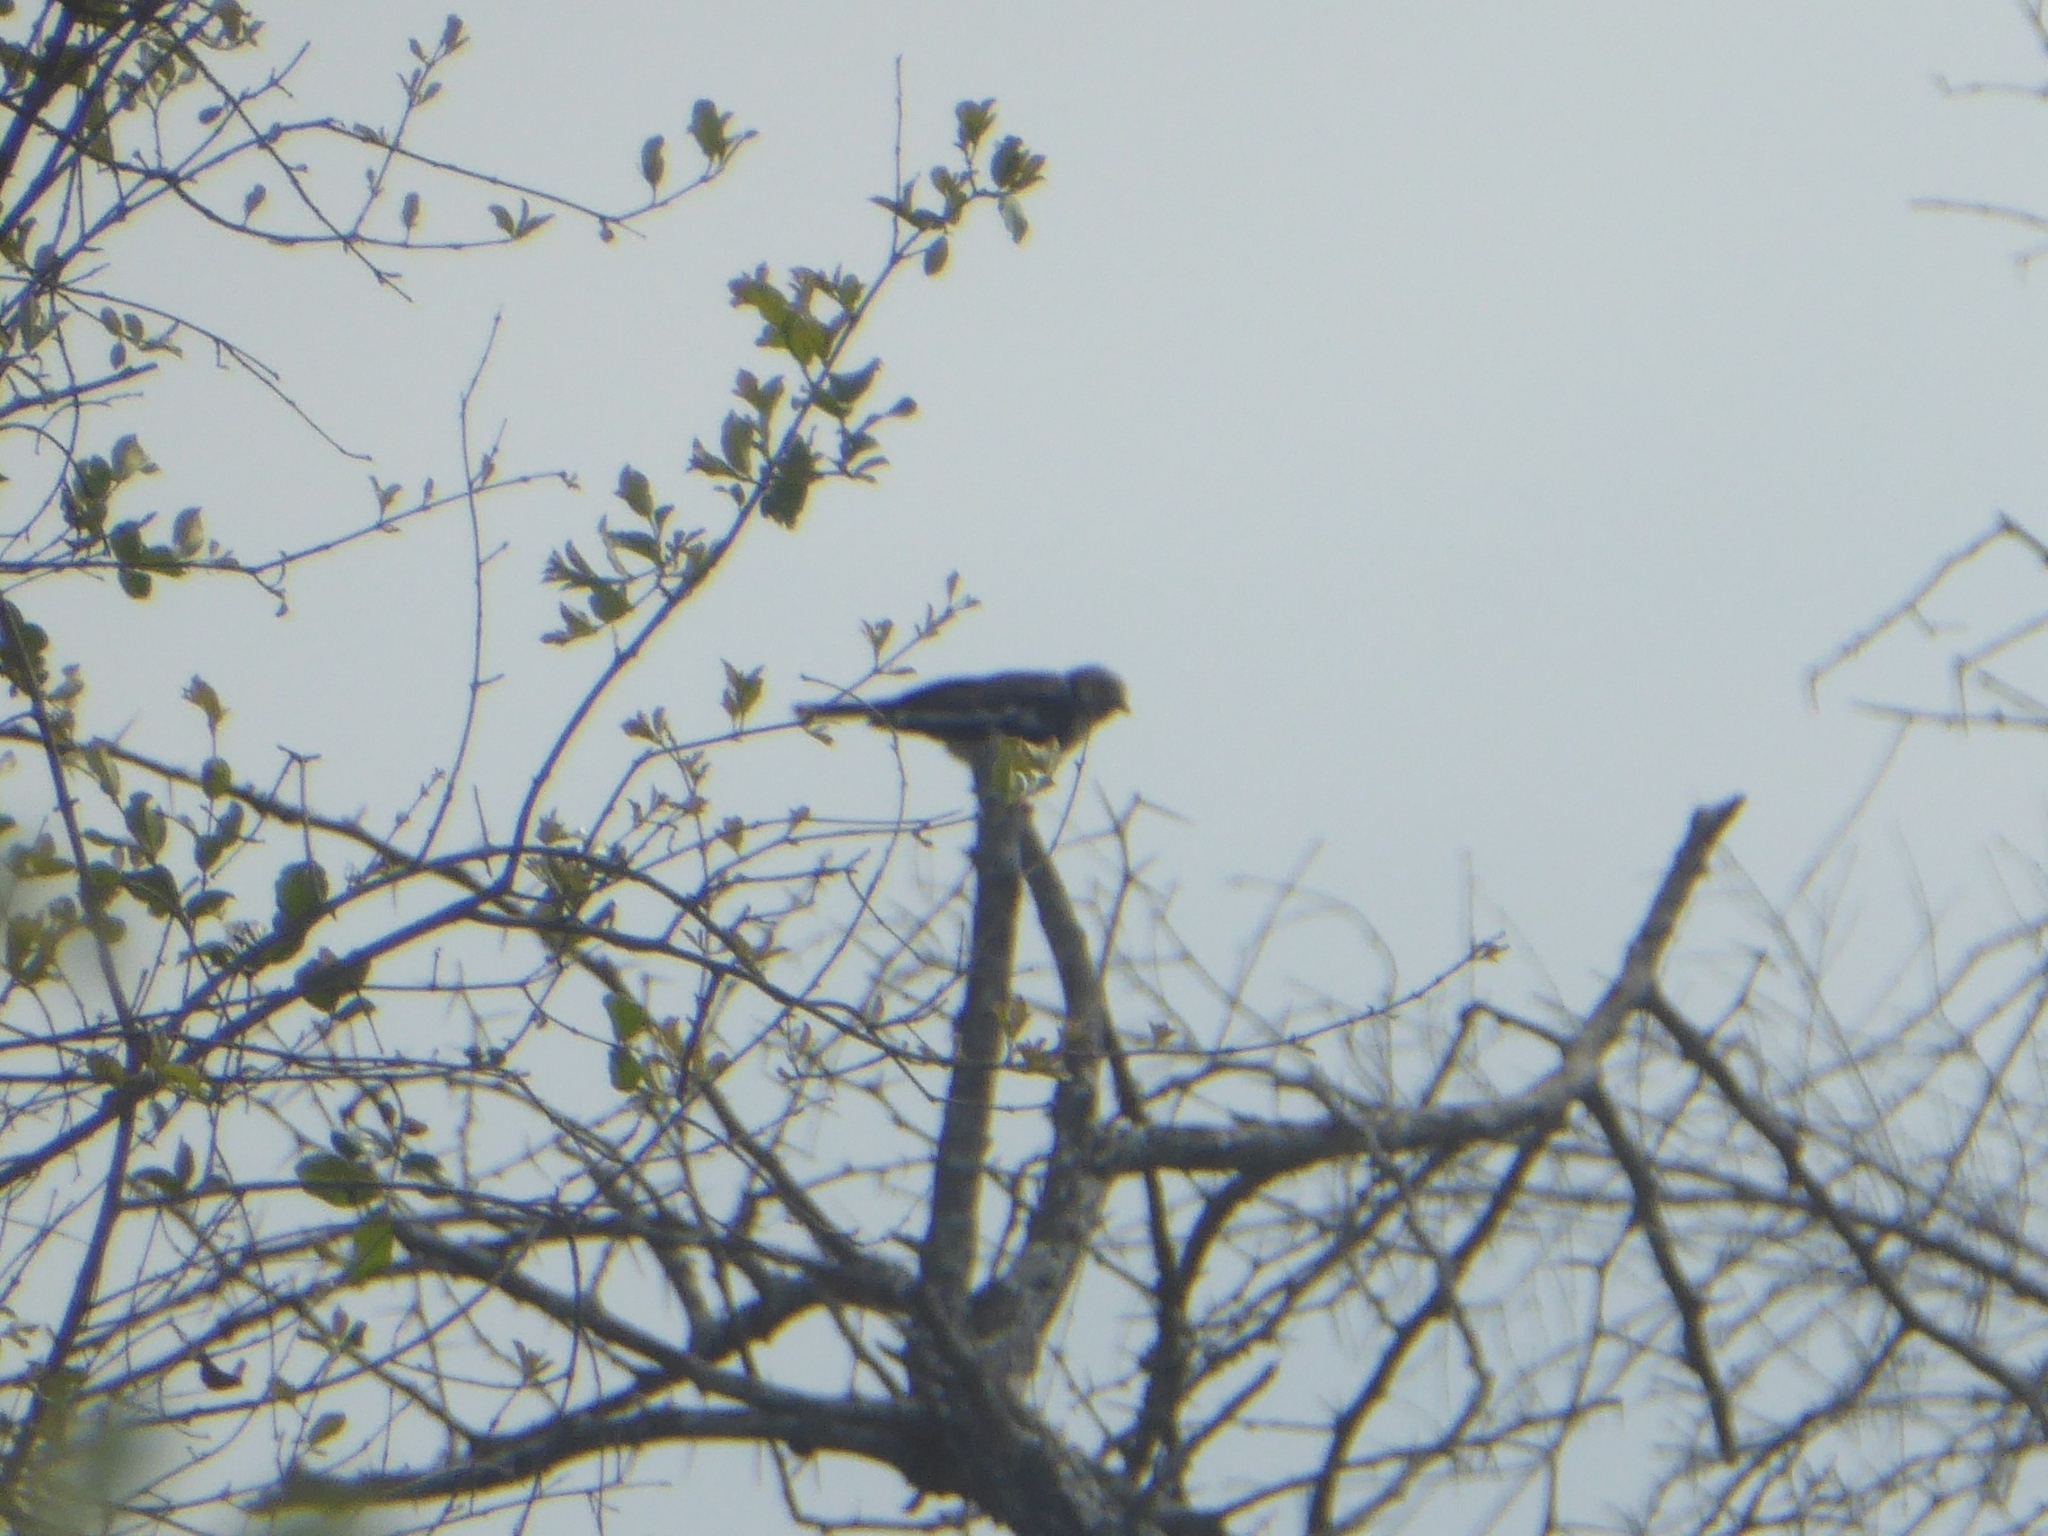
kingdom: Animalia
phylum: Chordata
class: Aves
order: Passeriformes
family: Prionopidae
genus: Prionops
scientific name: Prionops plumatus
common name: White-crested helmetshrike
